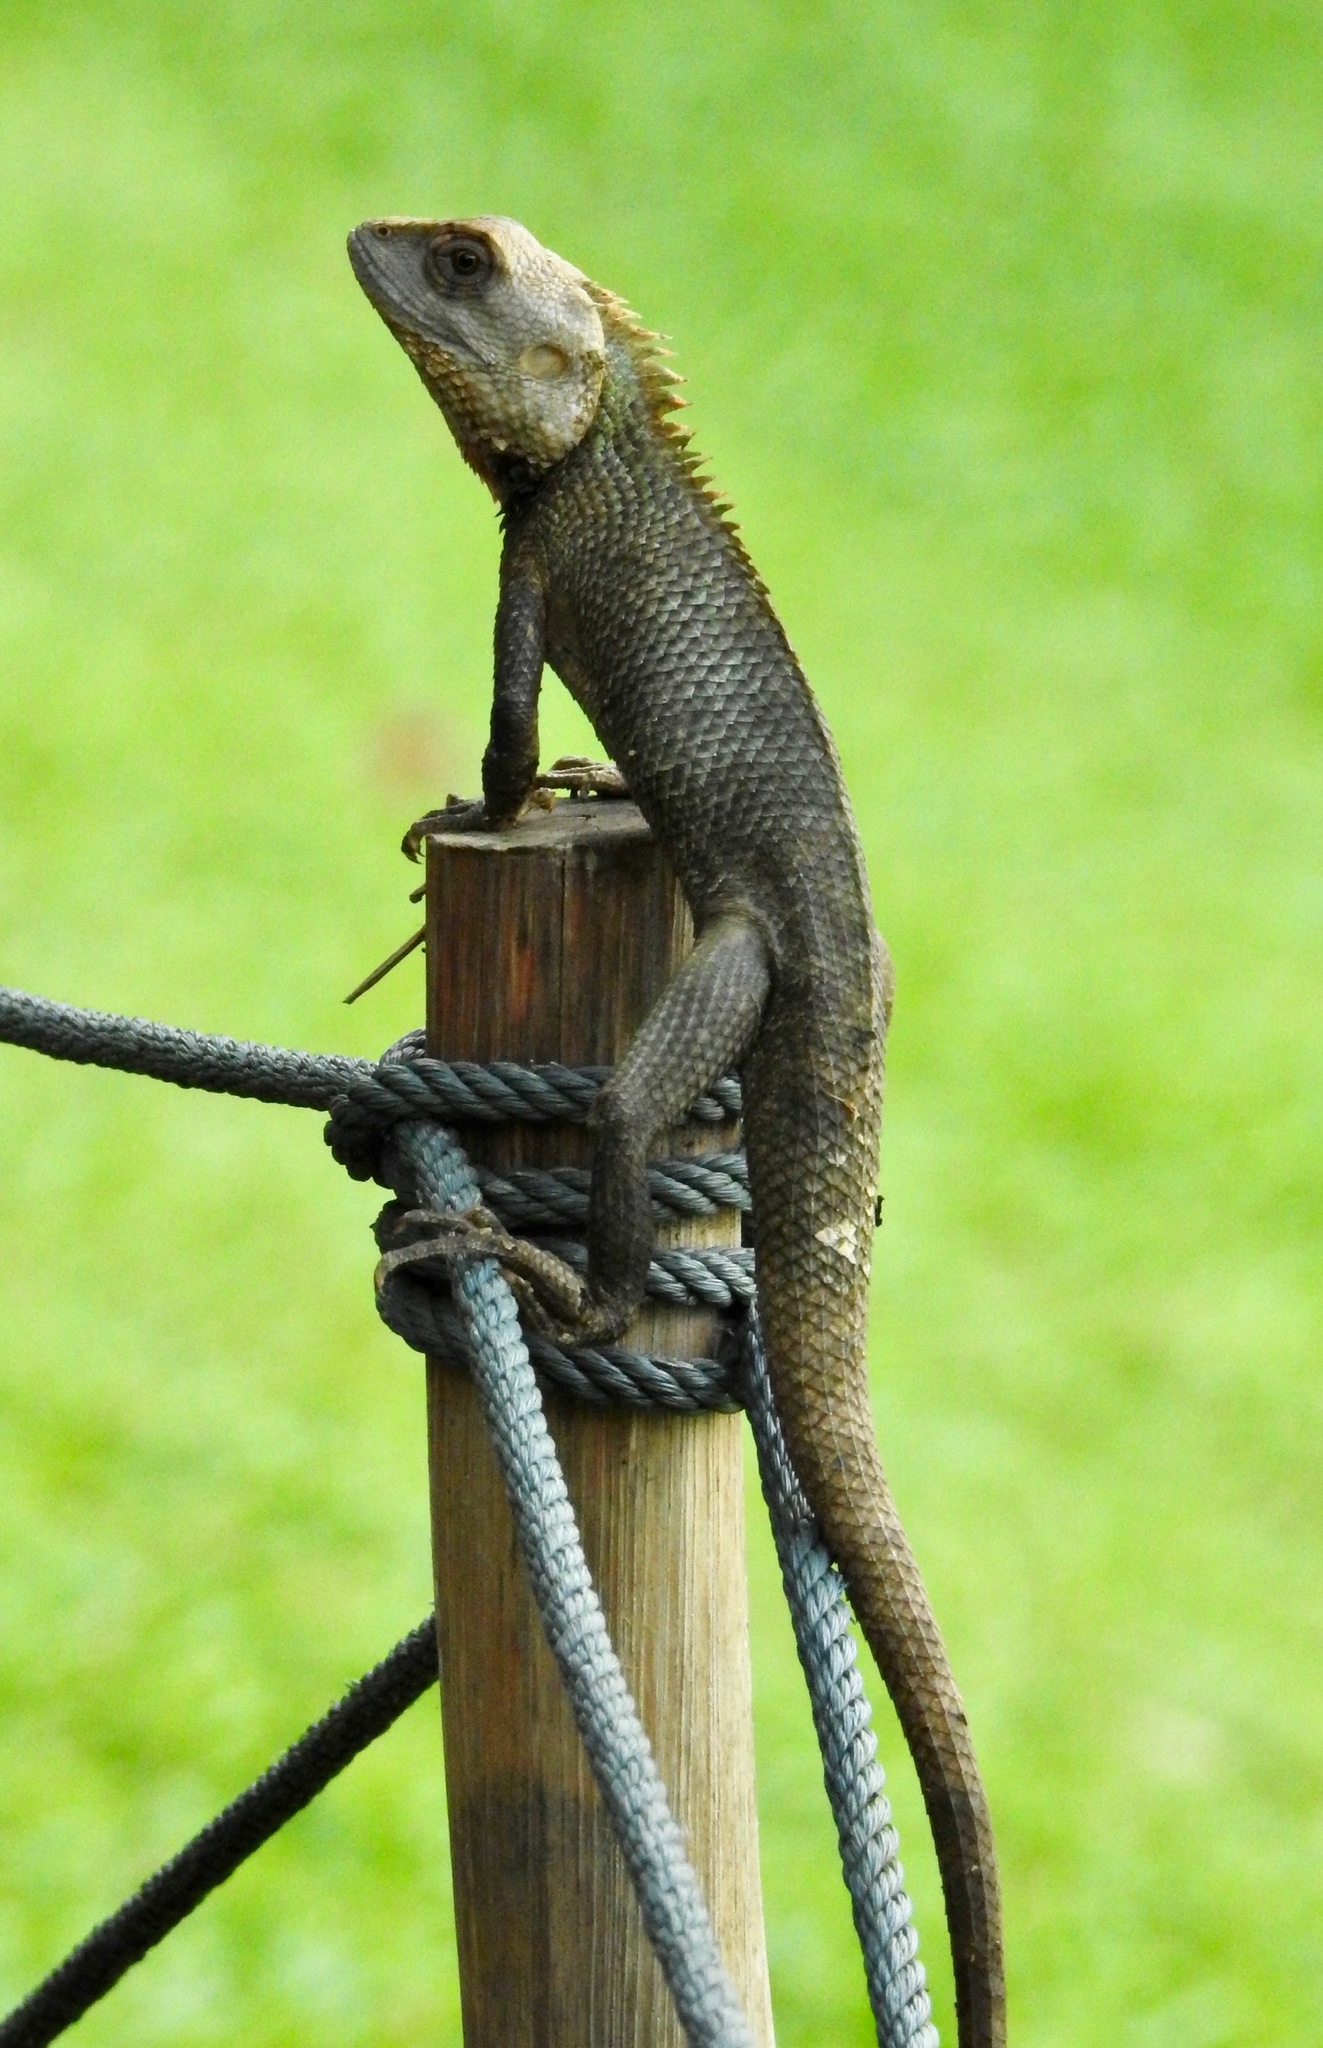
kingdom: Animalia
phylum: Chordata
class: Squamata
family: Agamidae
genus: Calotes
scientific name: Calotes versicolor
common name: Oriental garden lizard
